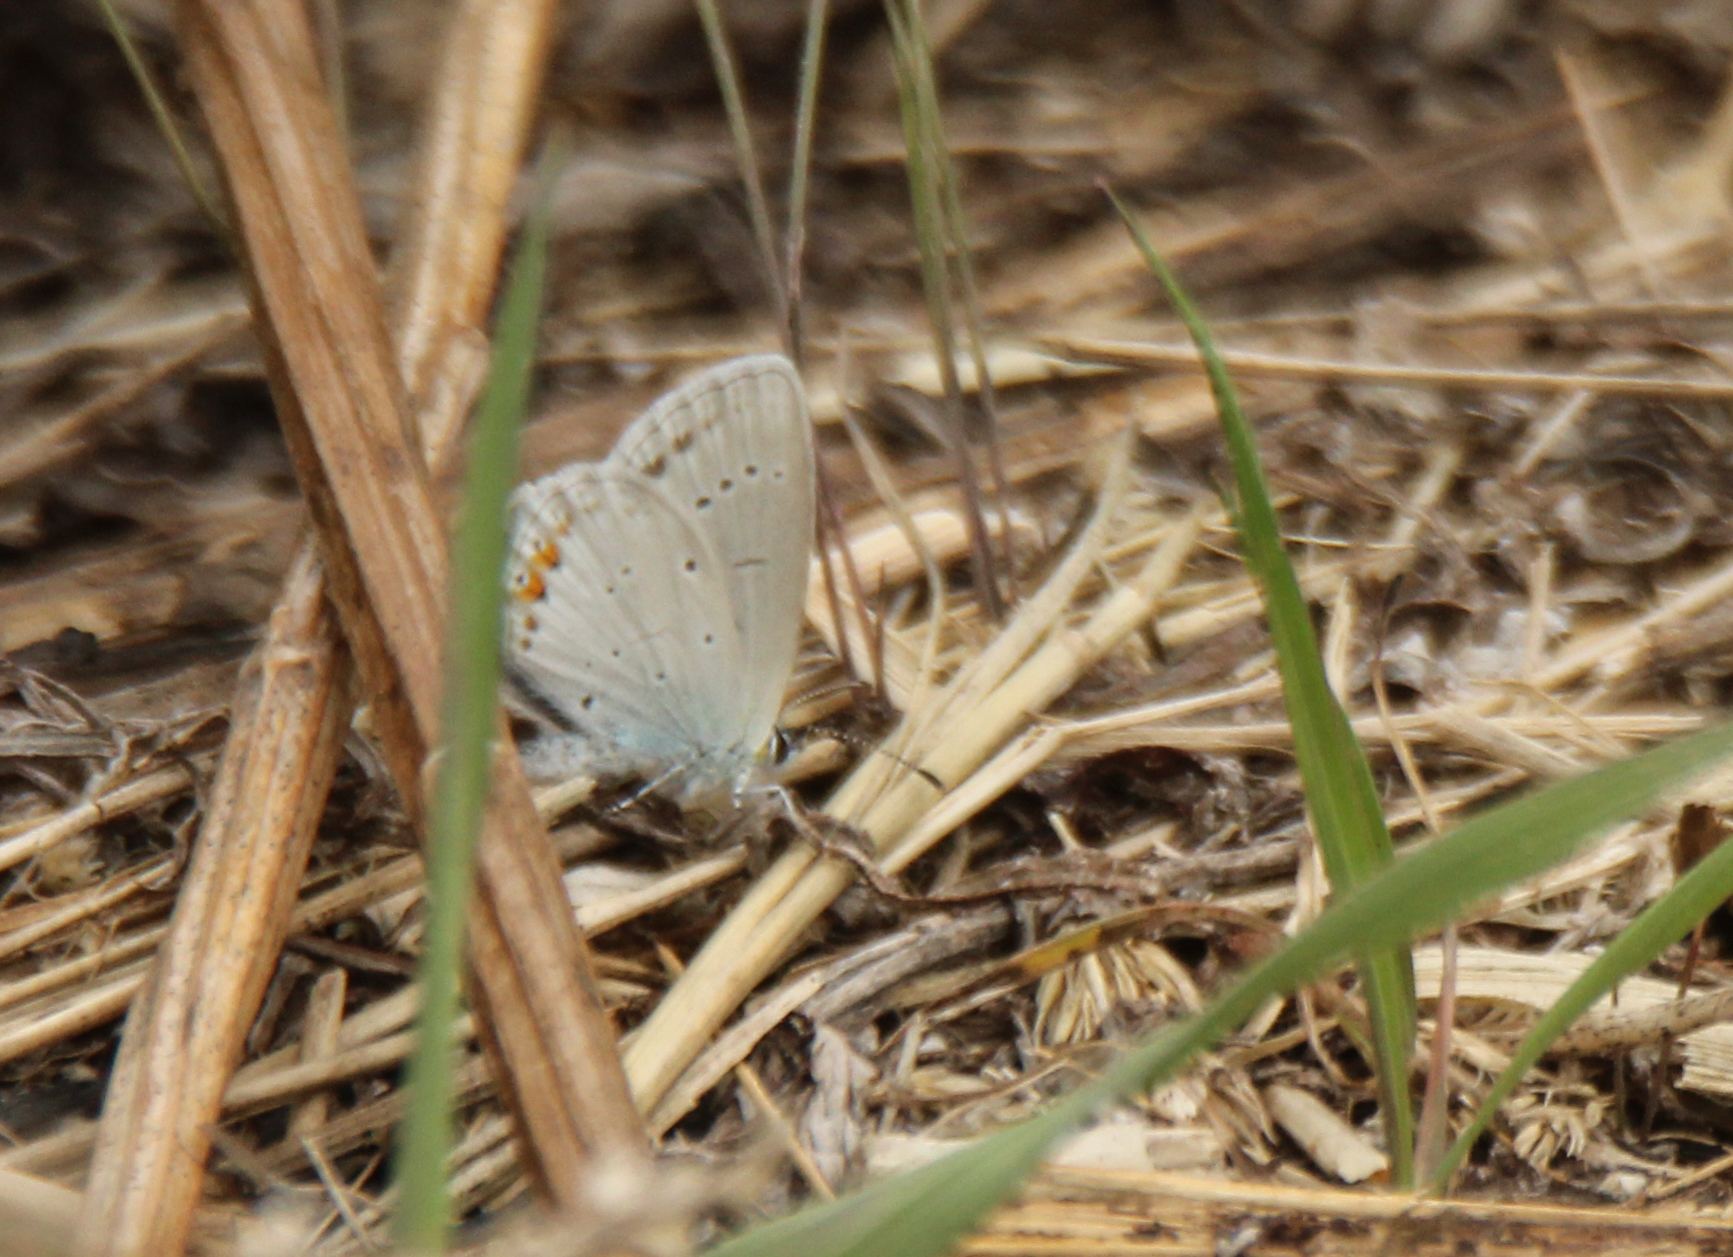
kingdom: Animalia
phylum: Arthropoda
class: Insecta
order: Lepidoptera
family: Lycaenidae
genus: Elkalyce
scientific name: Elkalyce argiades
